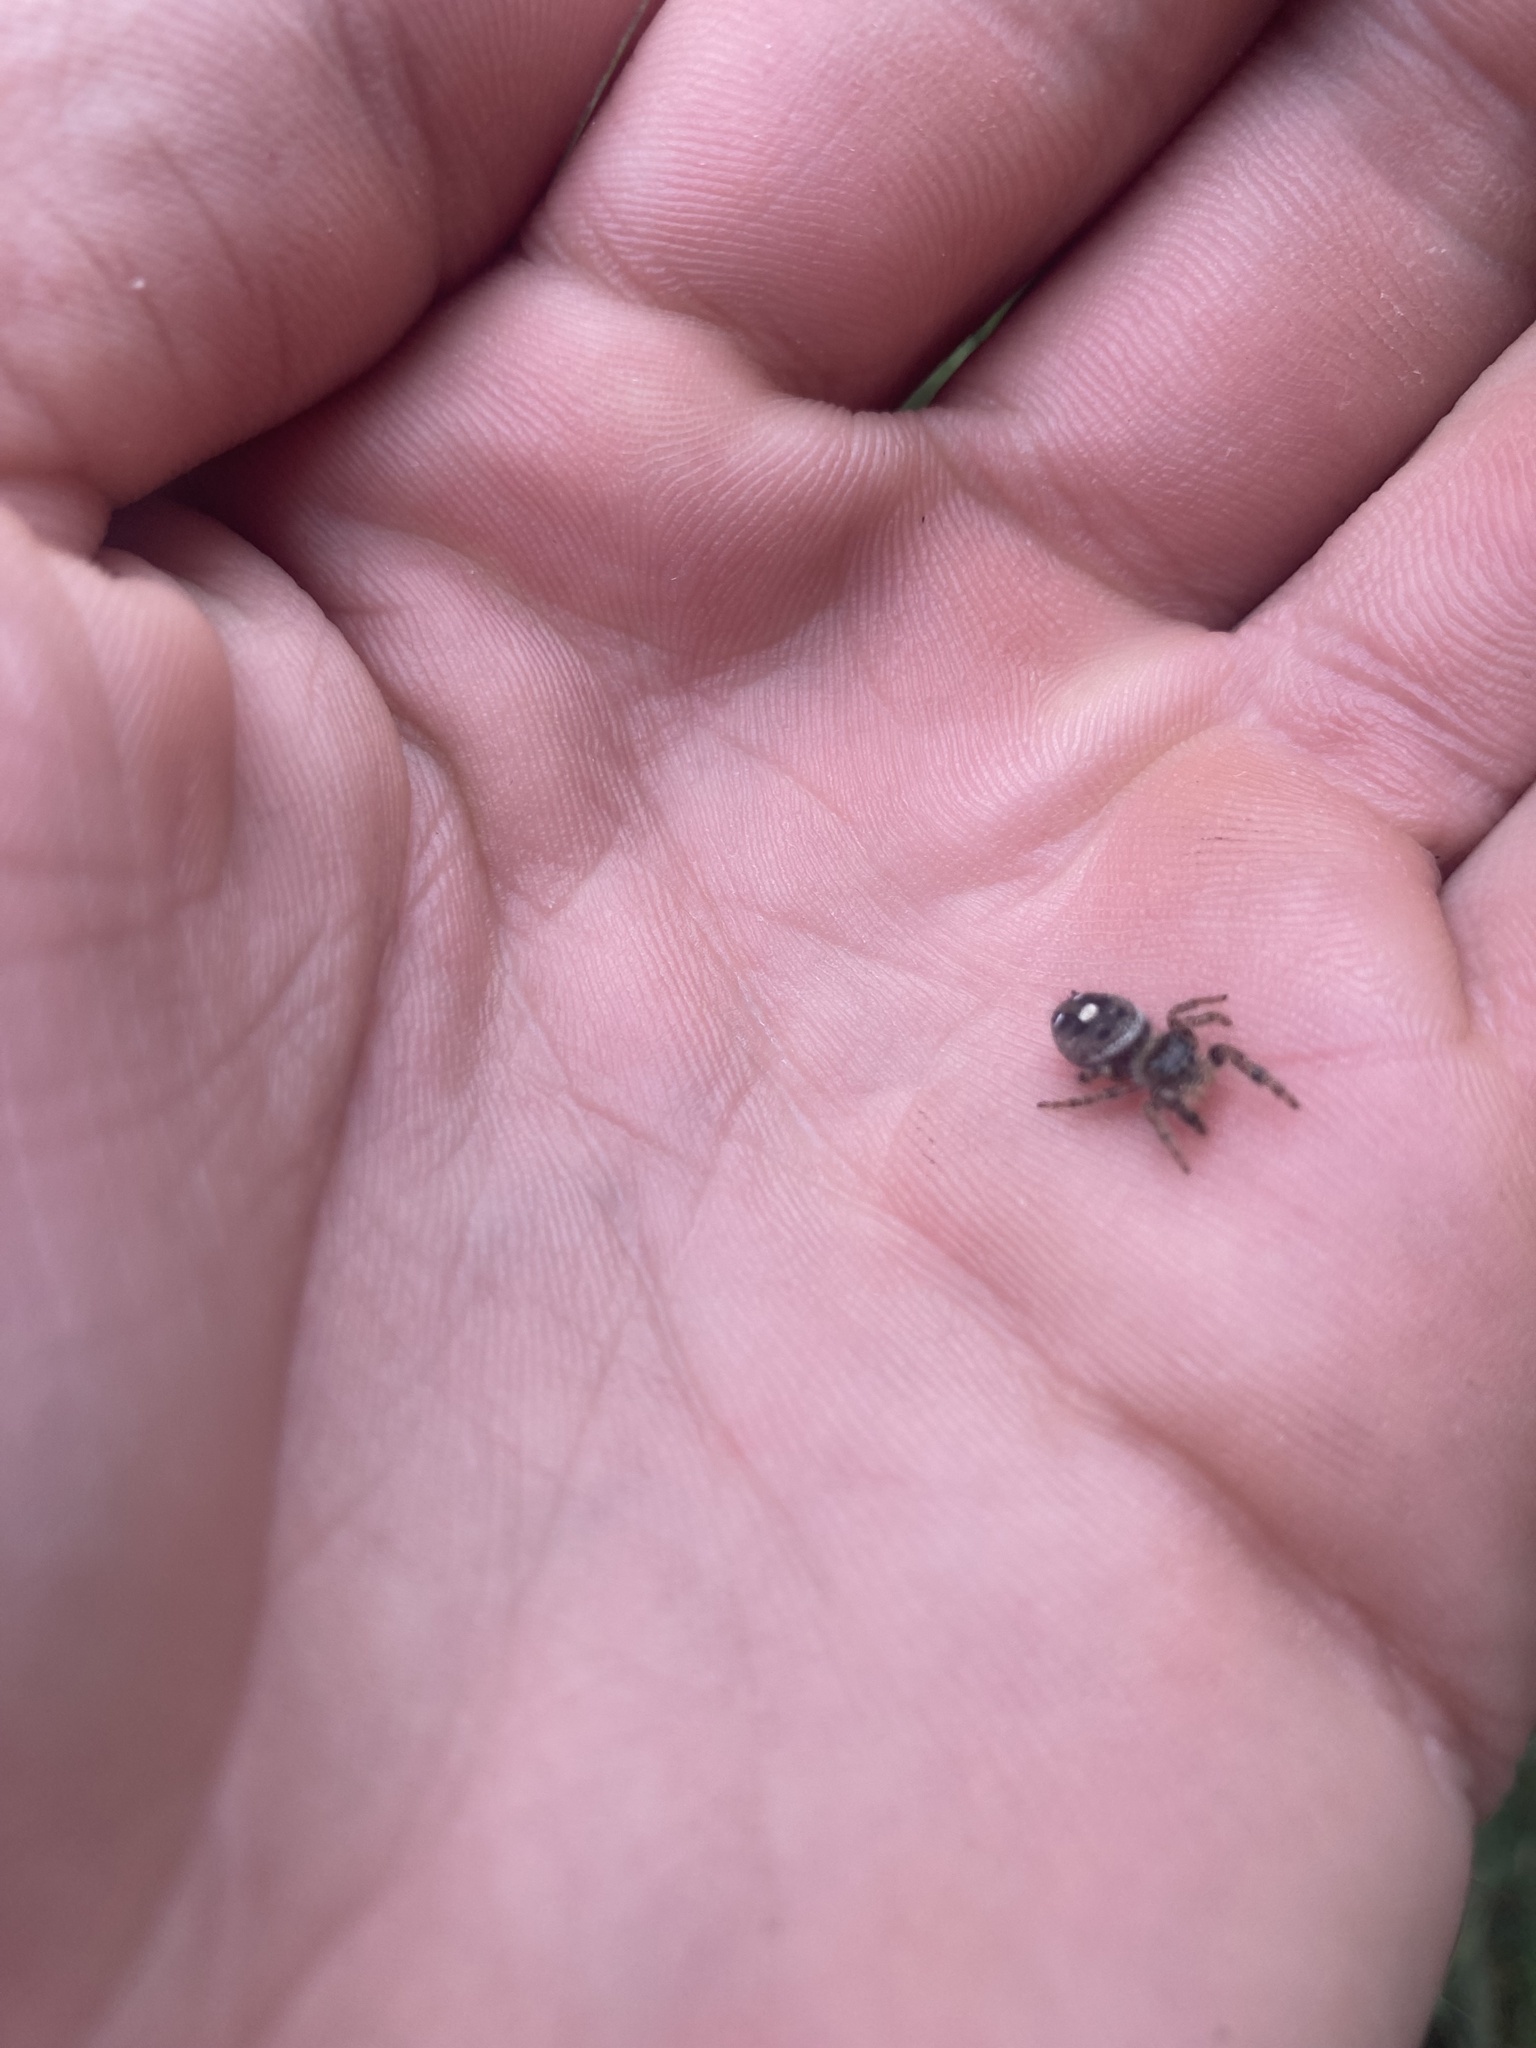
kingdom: Animalia
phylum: Arthropoda
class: Arachnida
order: Araneae
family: Salticidae
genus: Phidippus
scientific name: Phidippus audax
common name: Bold jumper
